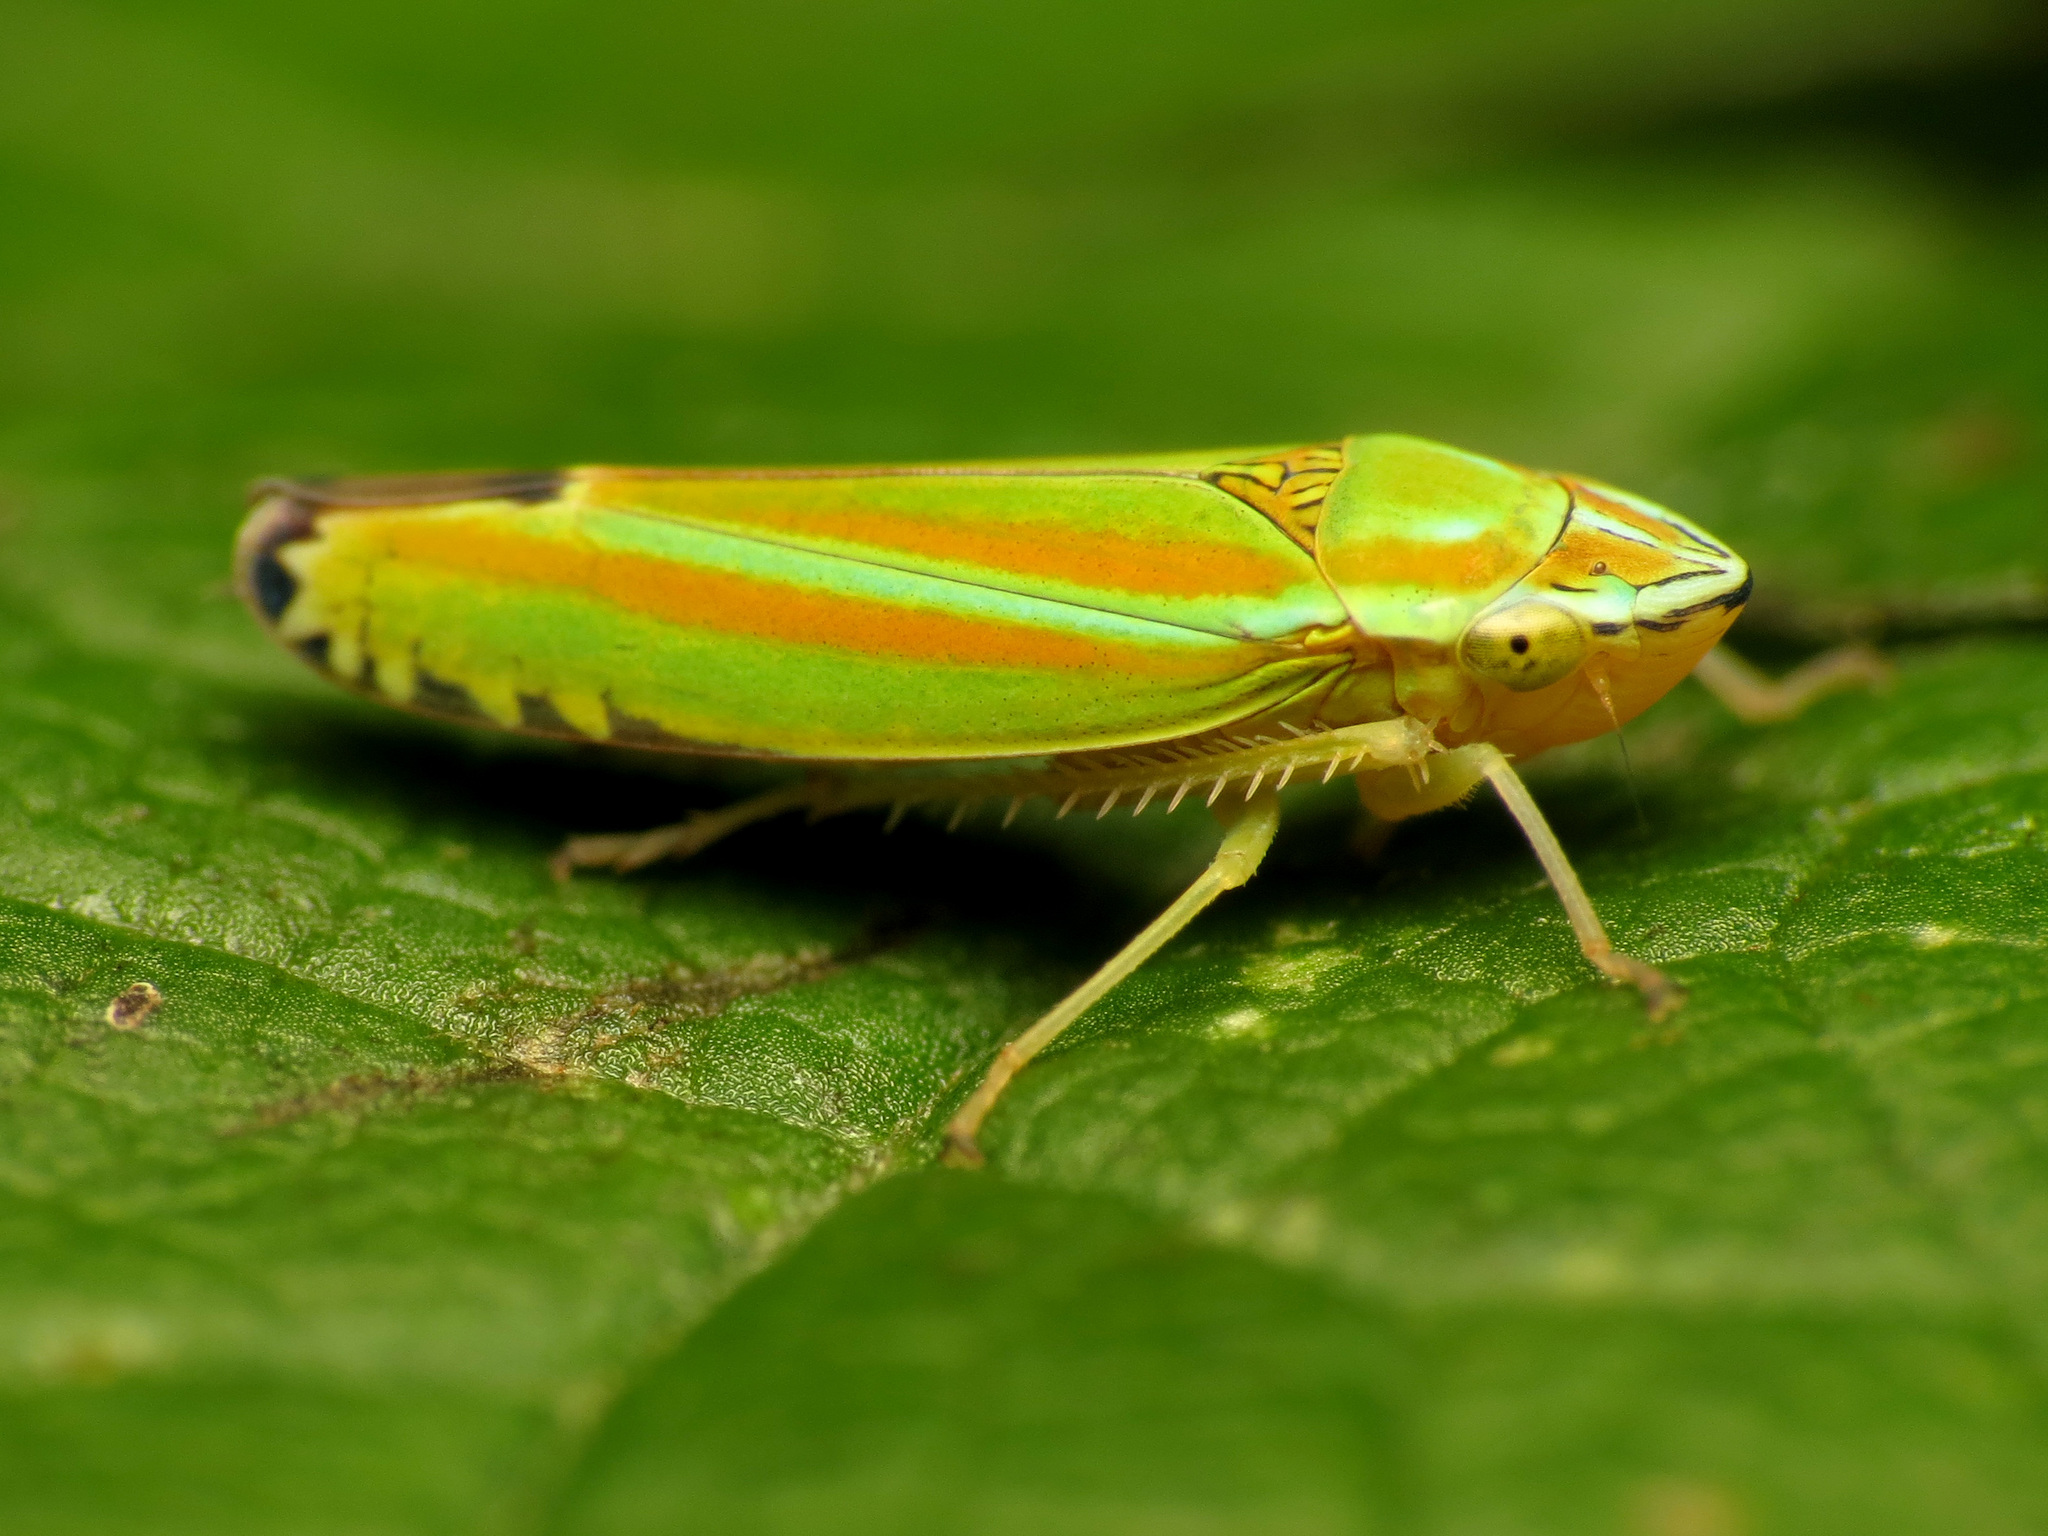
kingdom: Animalia
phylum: Arthropoda
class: Insecta
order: Hemiptera
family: Cicadellidae
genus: Graphocephala
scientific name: Graphocephala versuta
